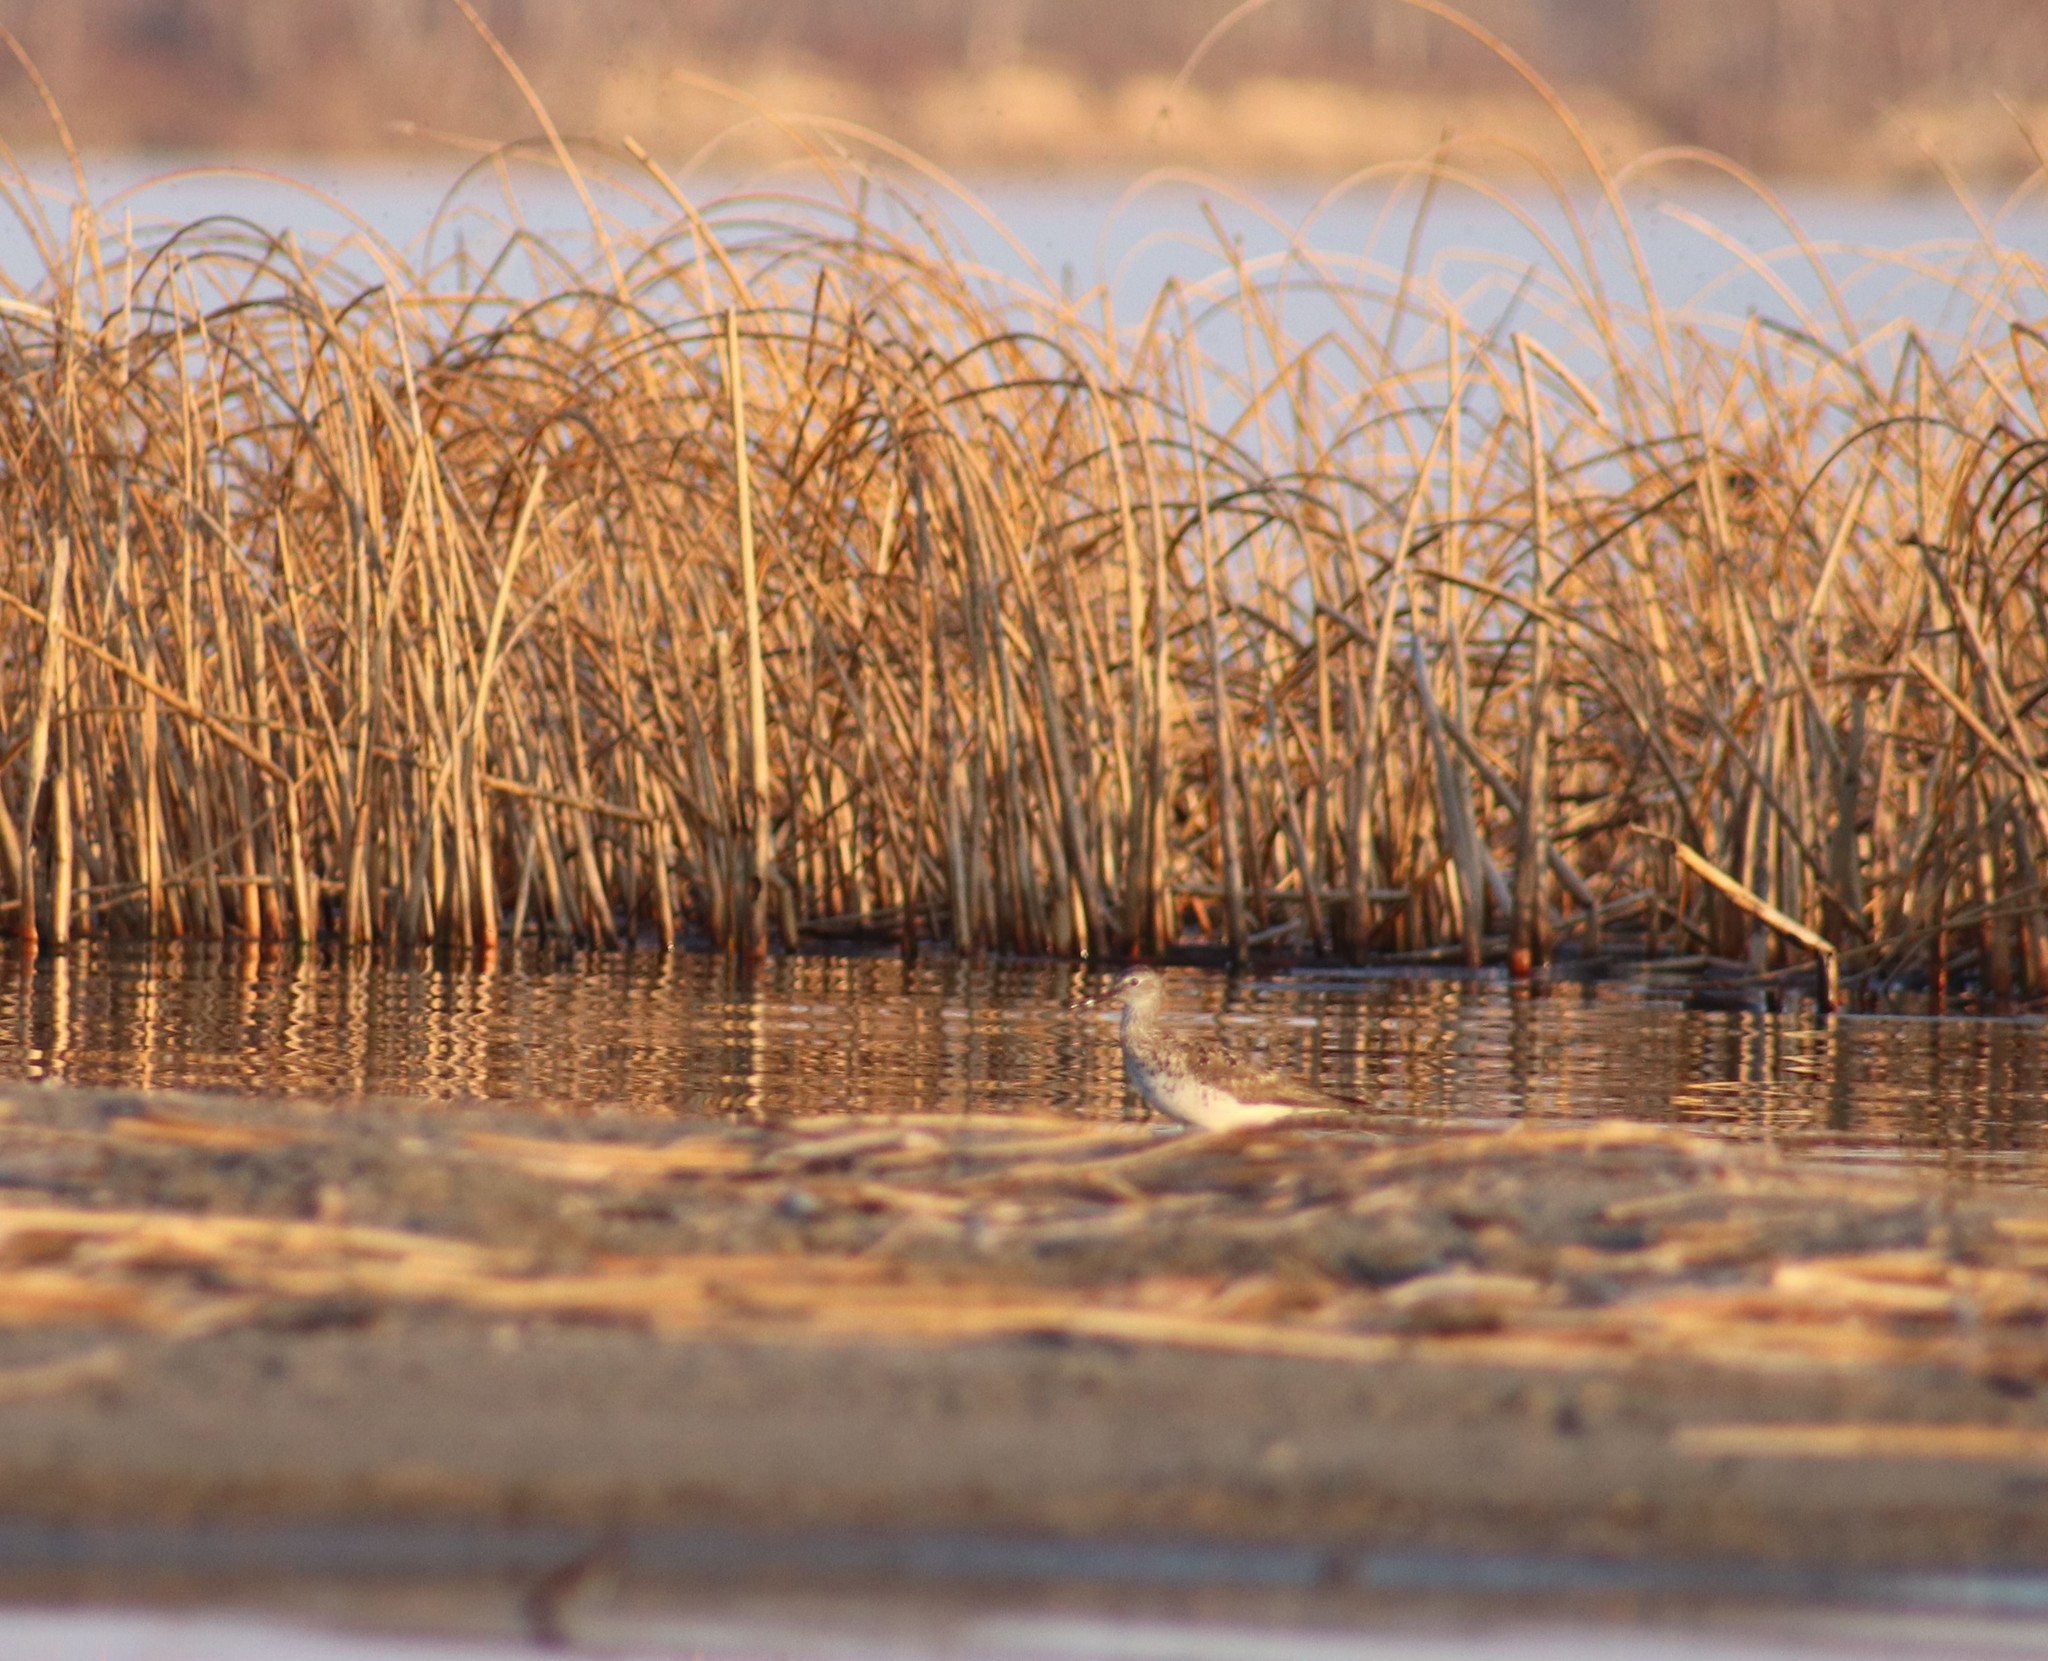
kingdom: Animalia
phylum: Chordata
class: Aves
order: Charadriiformes
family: Scolopacidae
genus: Tringa
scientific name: Tringa flavipes
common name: Lesser yellowlegs
